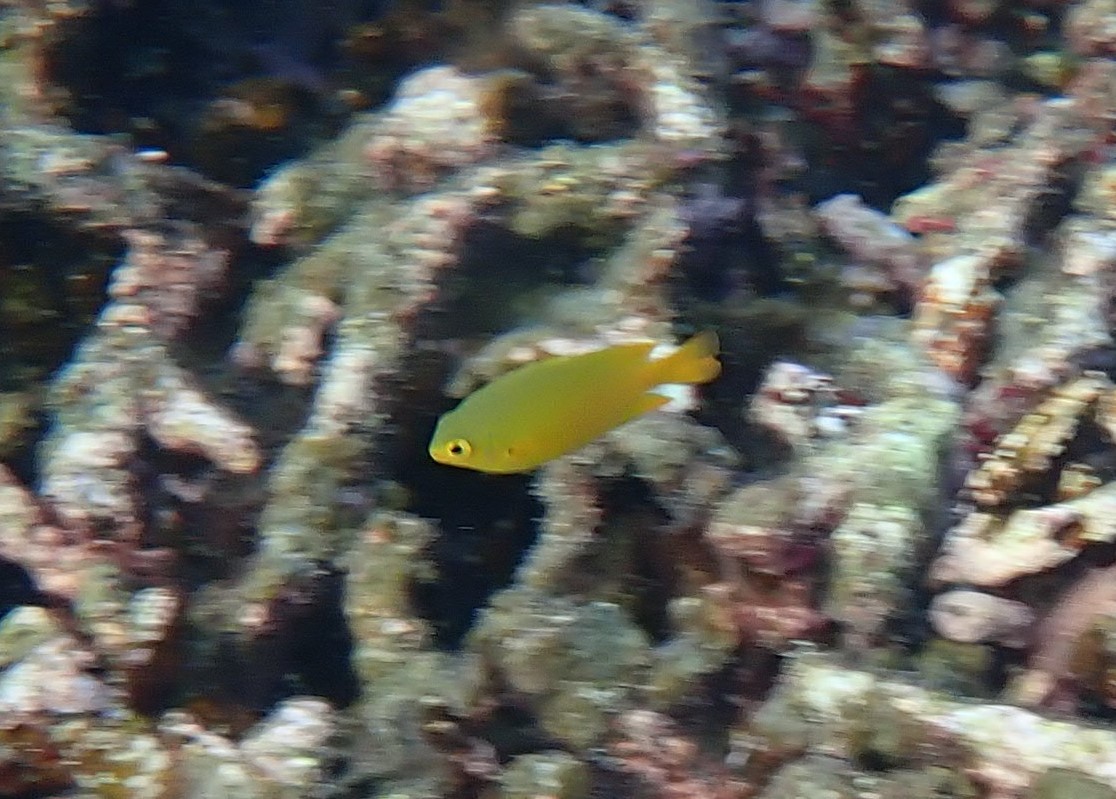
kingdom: Animalia
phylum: Chordata
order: Perciformes
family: Pomacentridae
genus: Pomacentrus
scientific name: Pomacentrus moluccensis
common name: Lemon damsel
